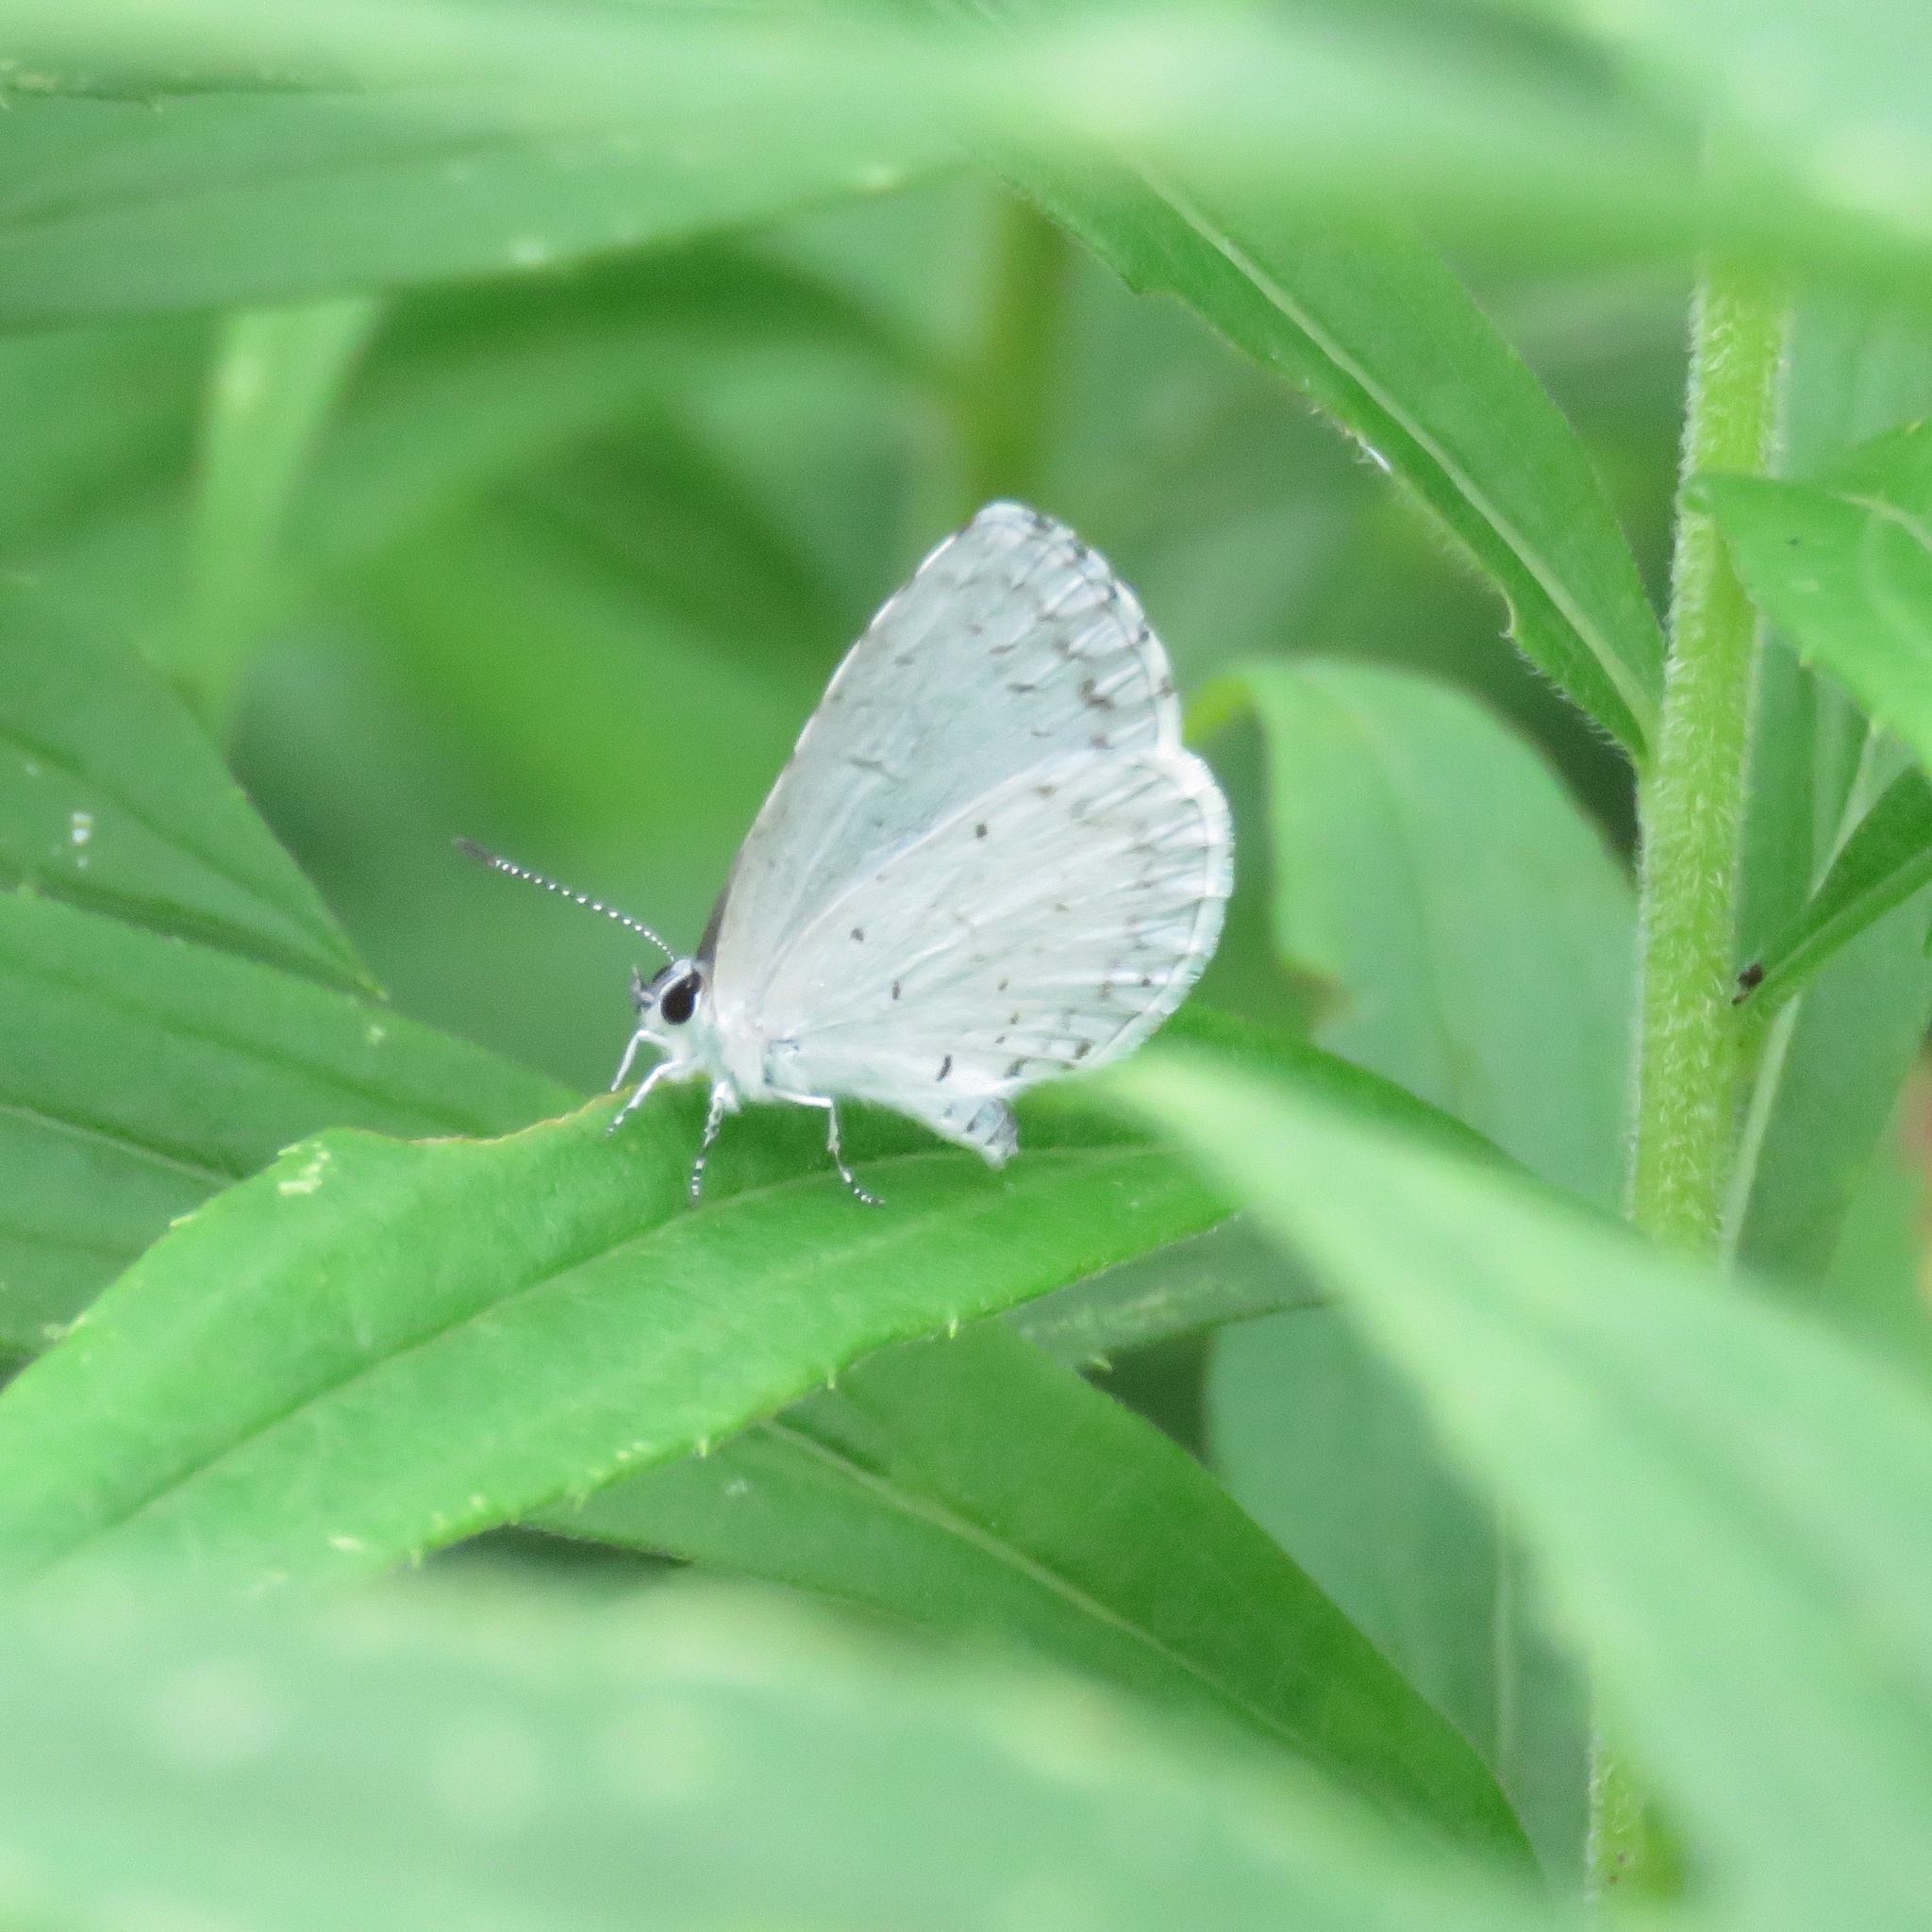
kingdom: Animalia
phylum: Arthropoda
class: Insecta
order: Lepidoptera
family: Lycaenidae
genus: Cyaniris
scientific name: Cyaniris neglecta
